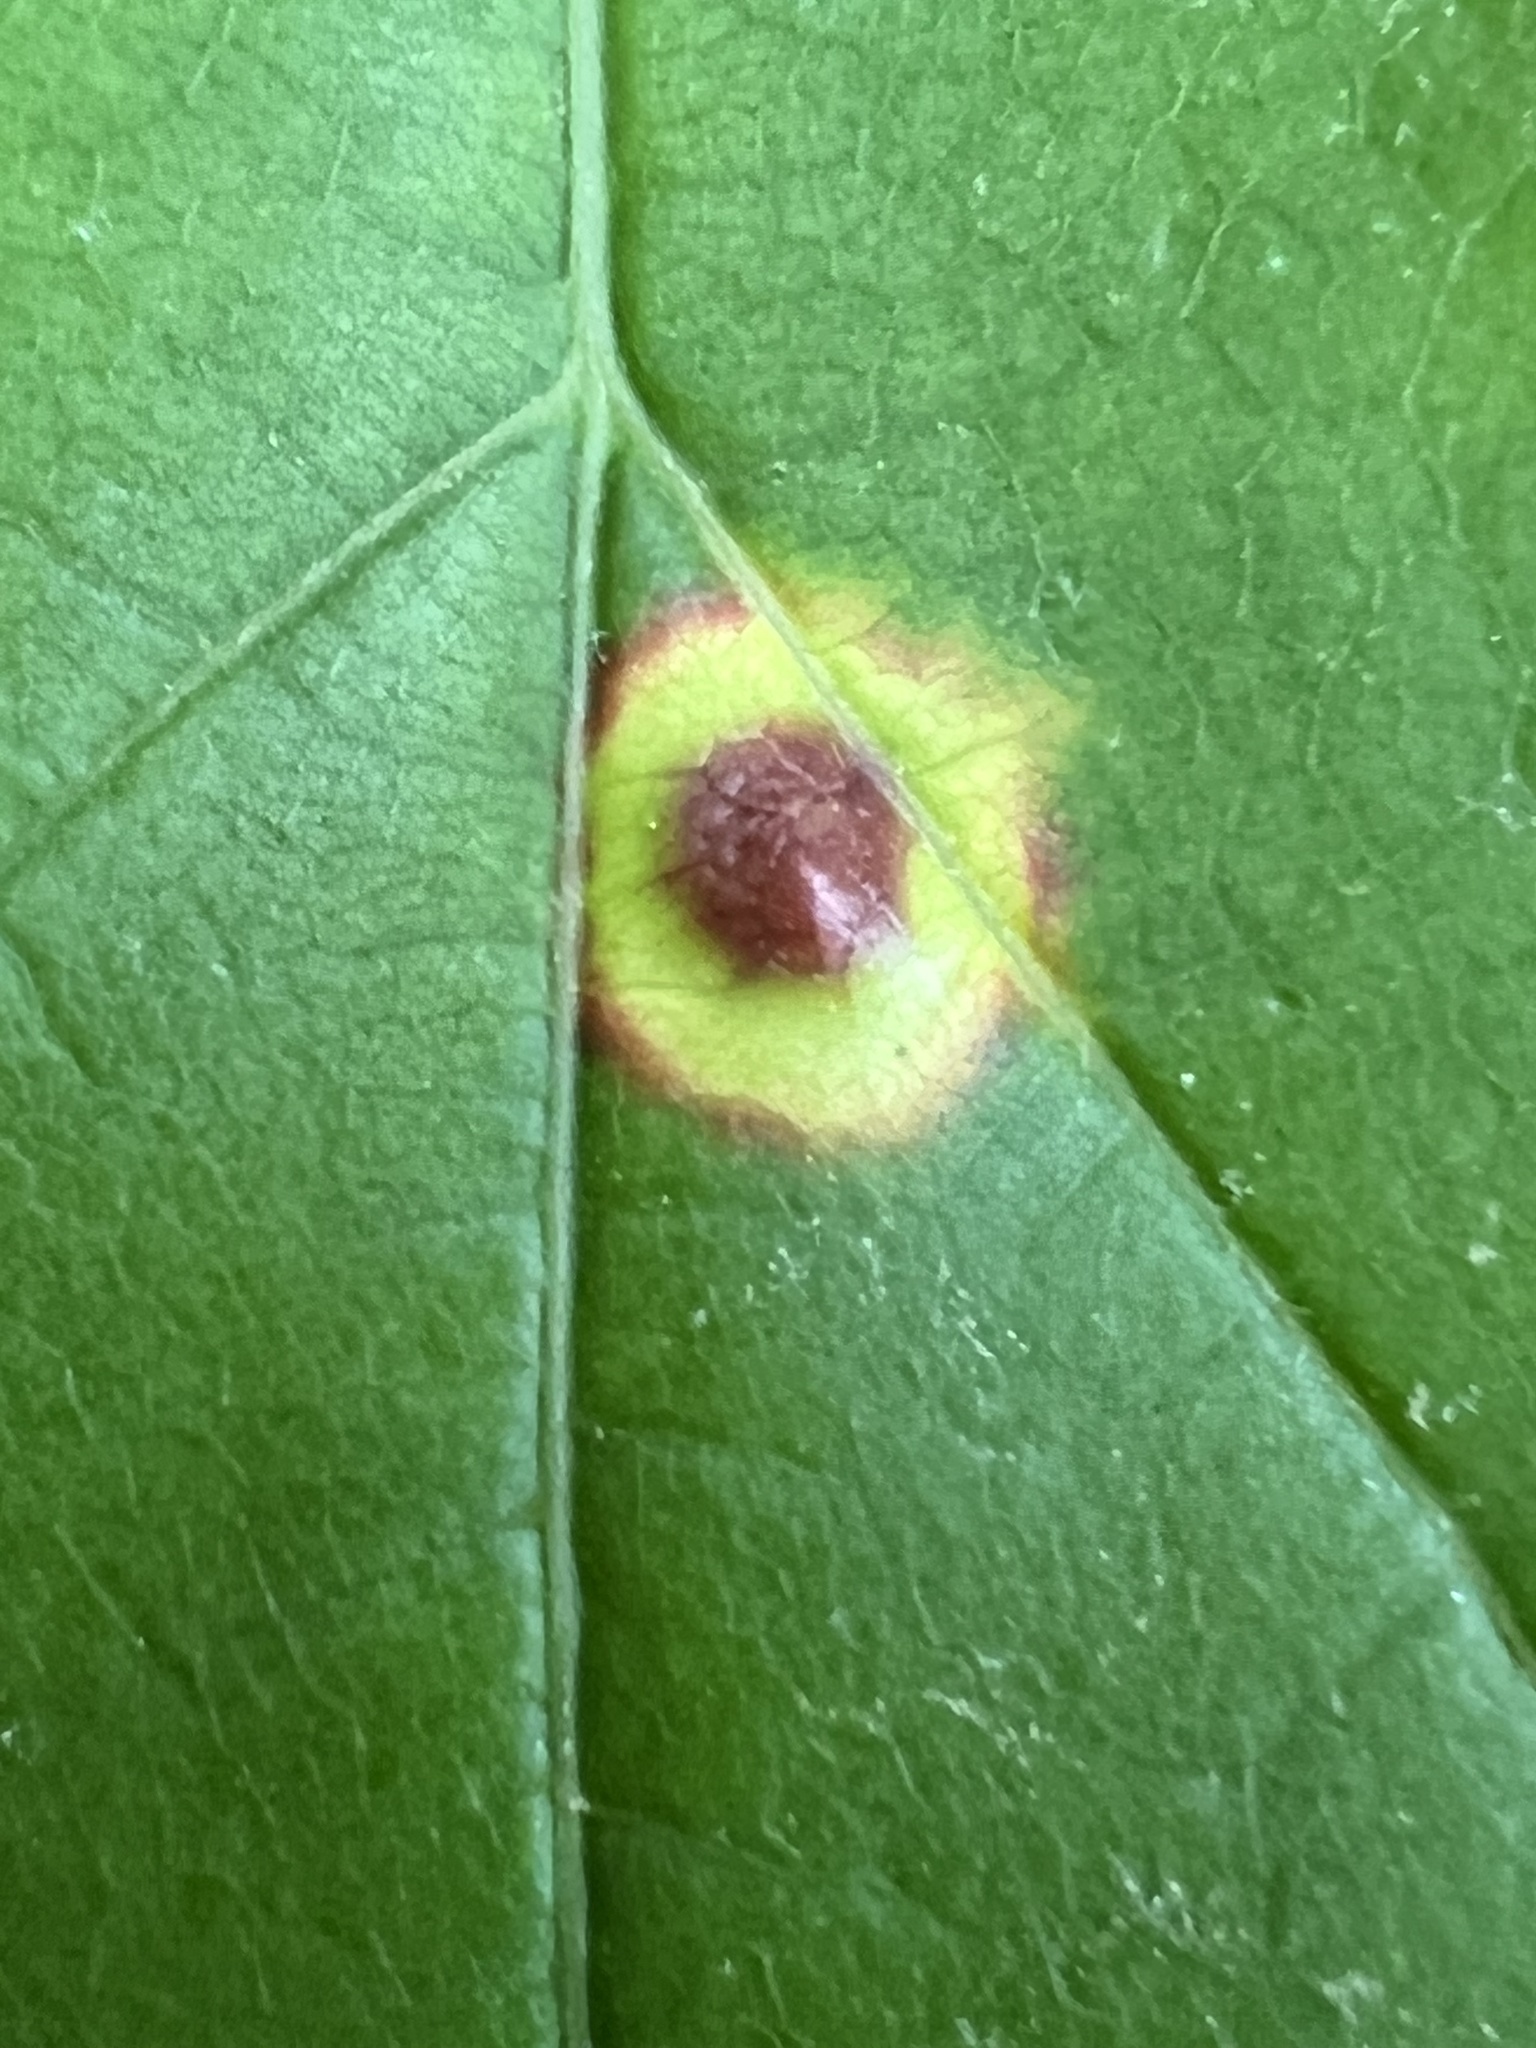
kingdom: Animalia
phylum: Arthropoda
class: Insecta
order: Diptera
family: Cecidomyiidae
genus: Acericecis
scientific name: Acericecis ocellaris
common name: Ocellate gall midge
